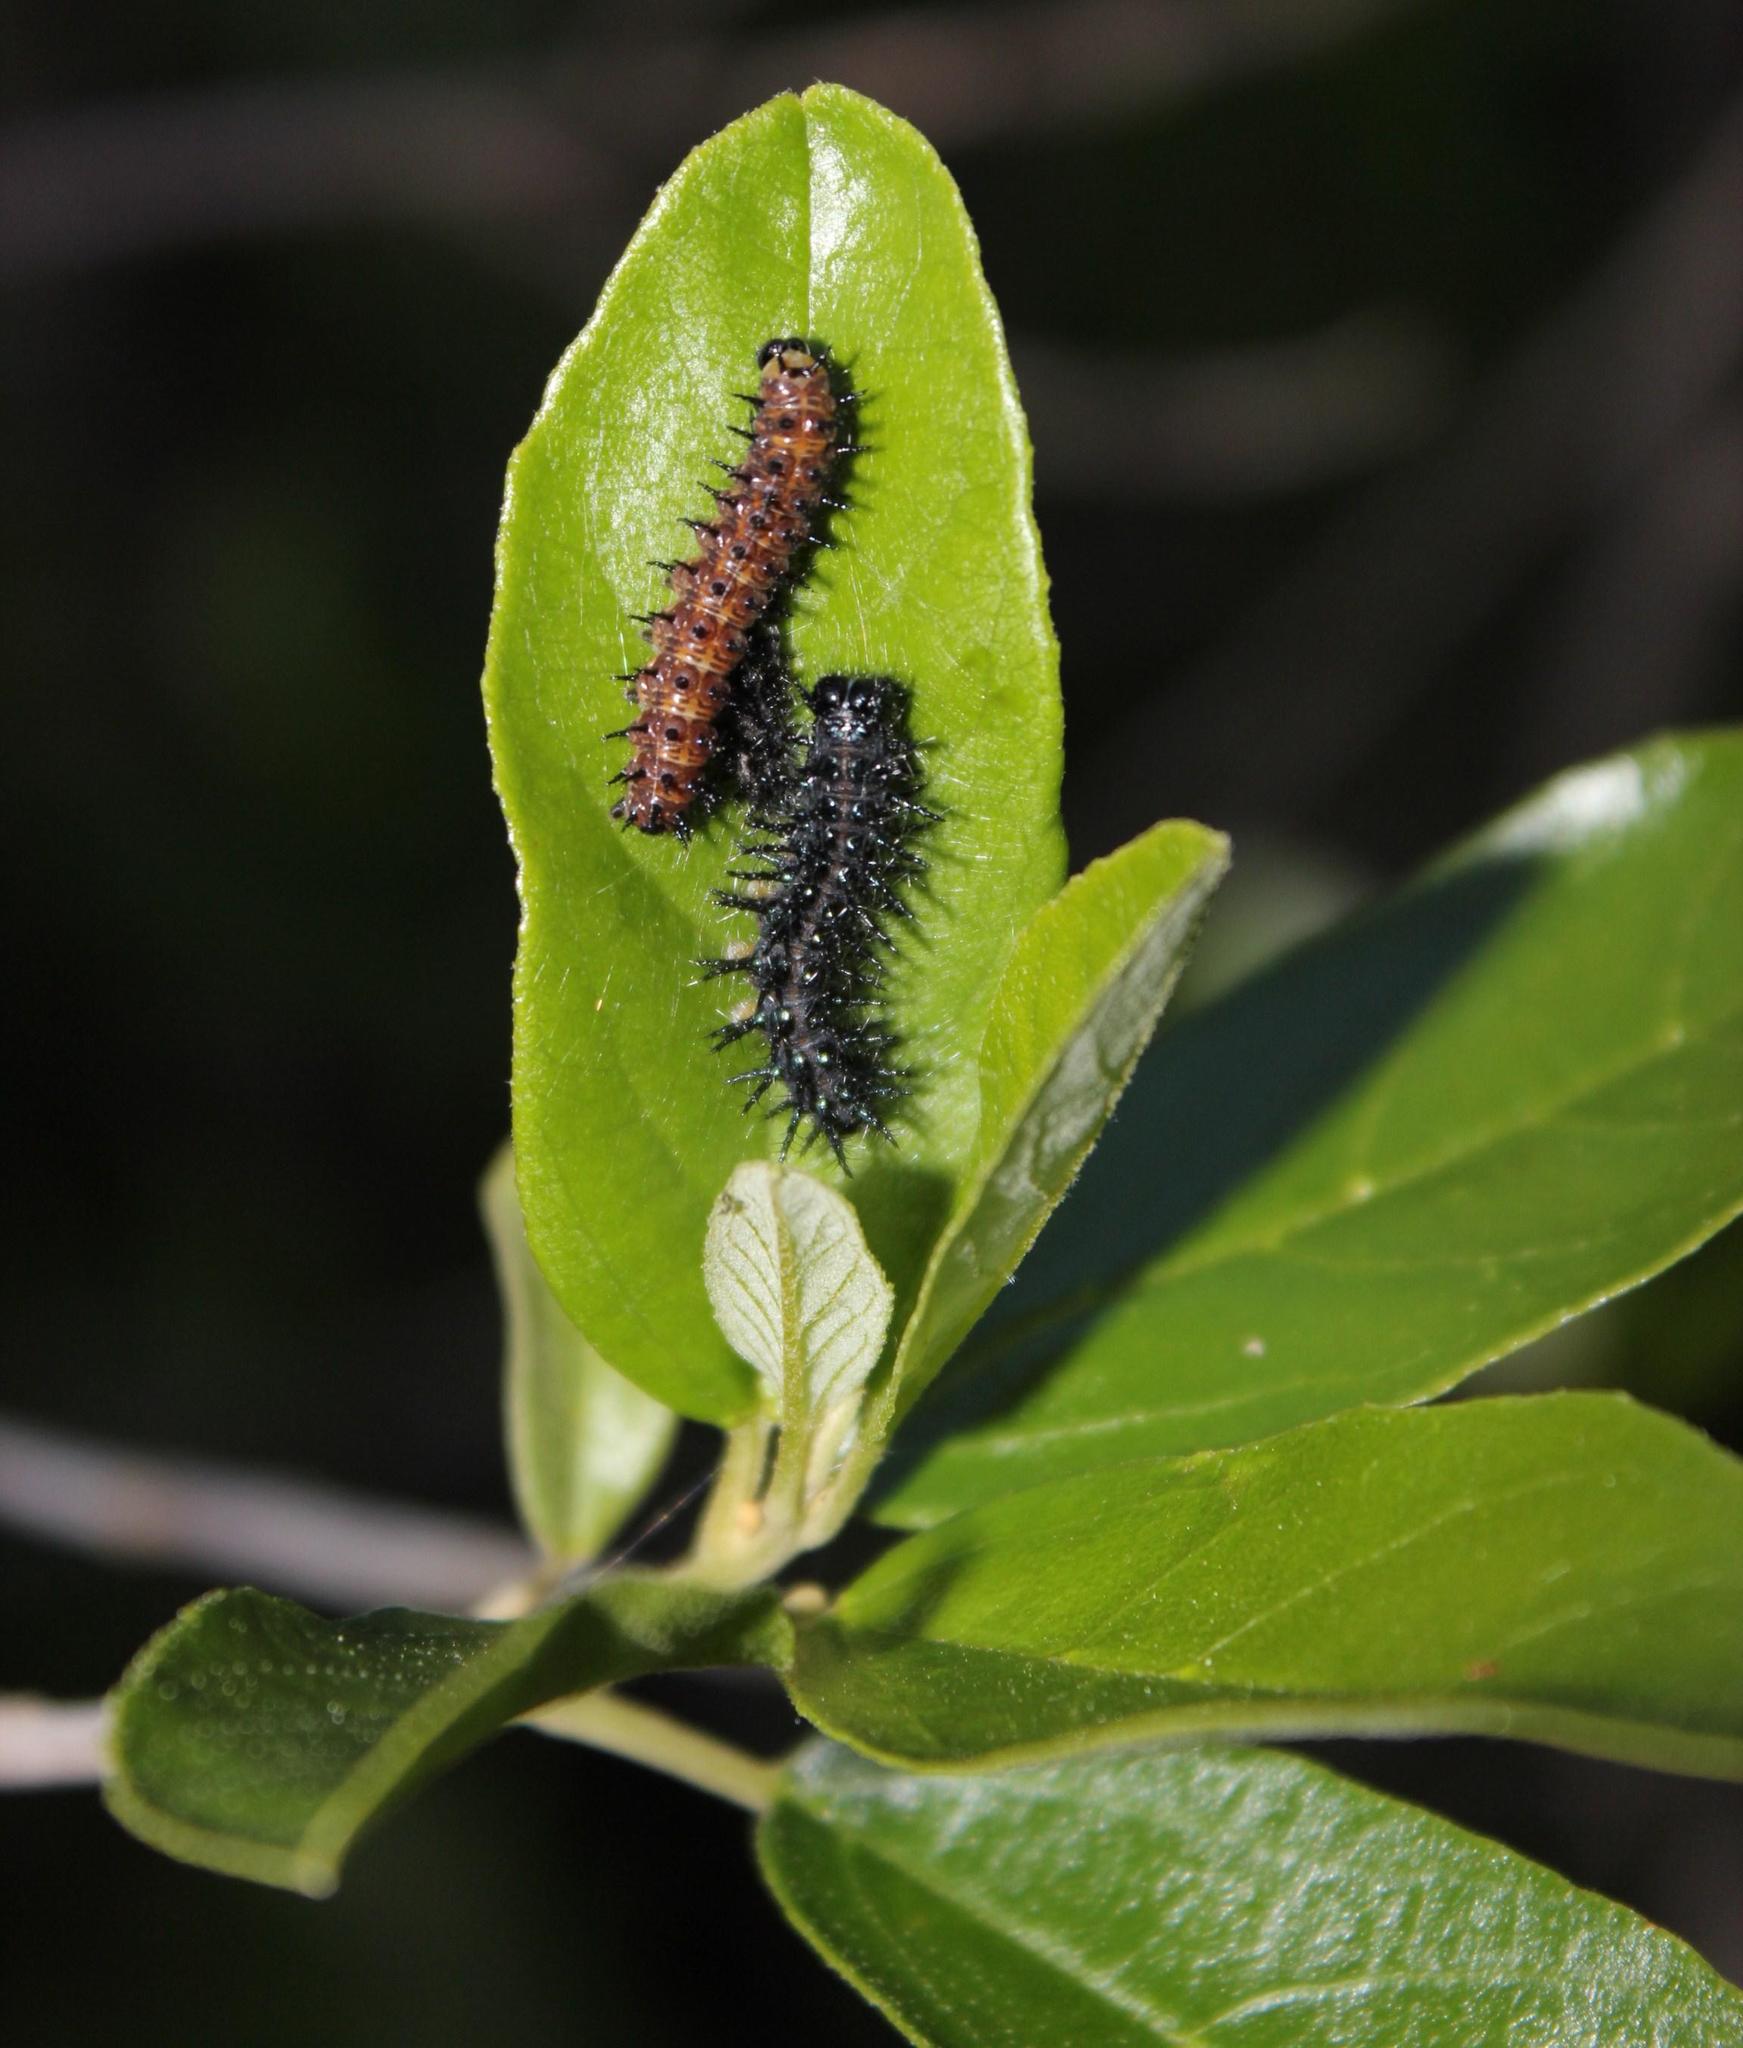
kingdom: Plantae
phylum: Tracheophyta
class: Magnoliopsida
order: Malpighiales
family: Achariaceae
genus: Kiggelaria
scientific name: Kiggelaria africana
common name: Wild peach
